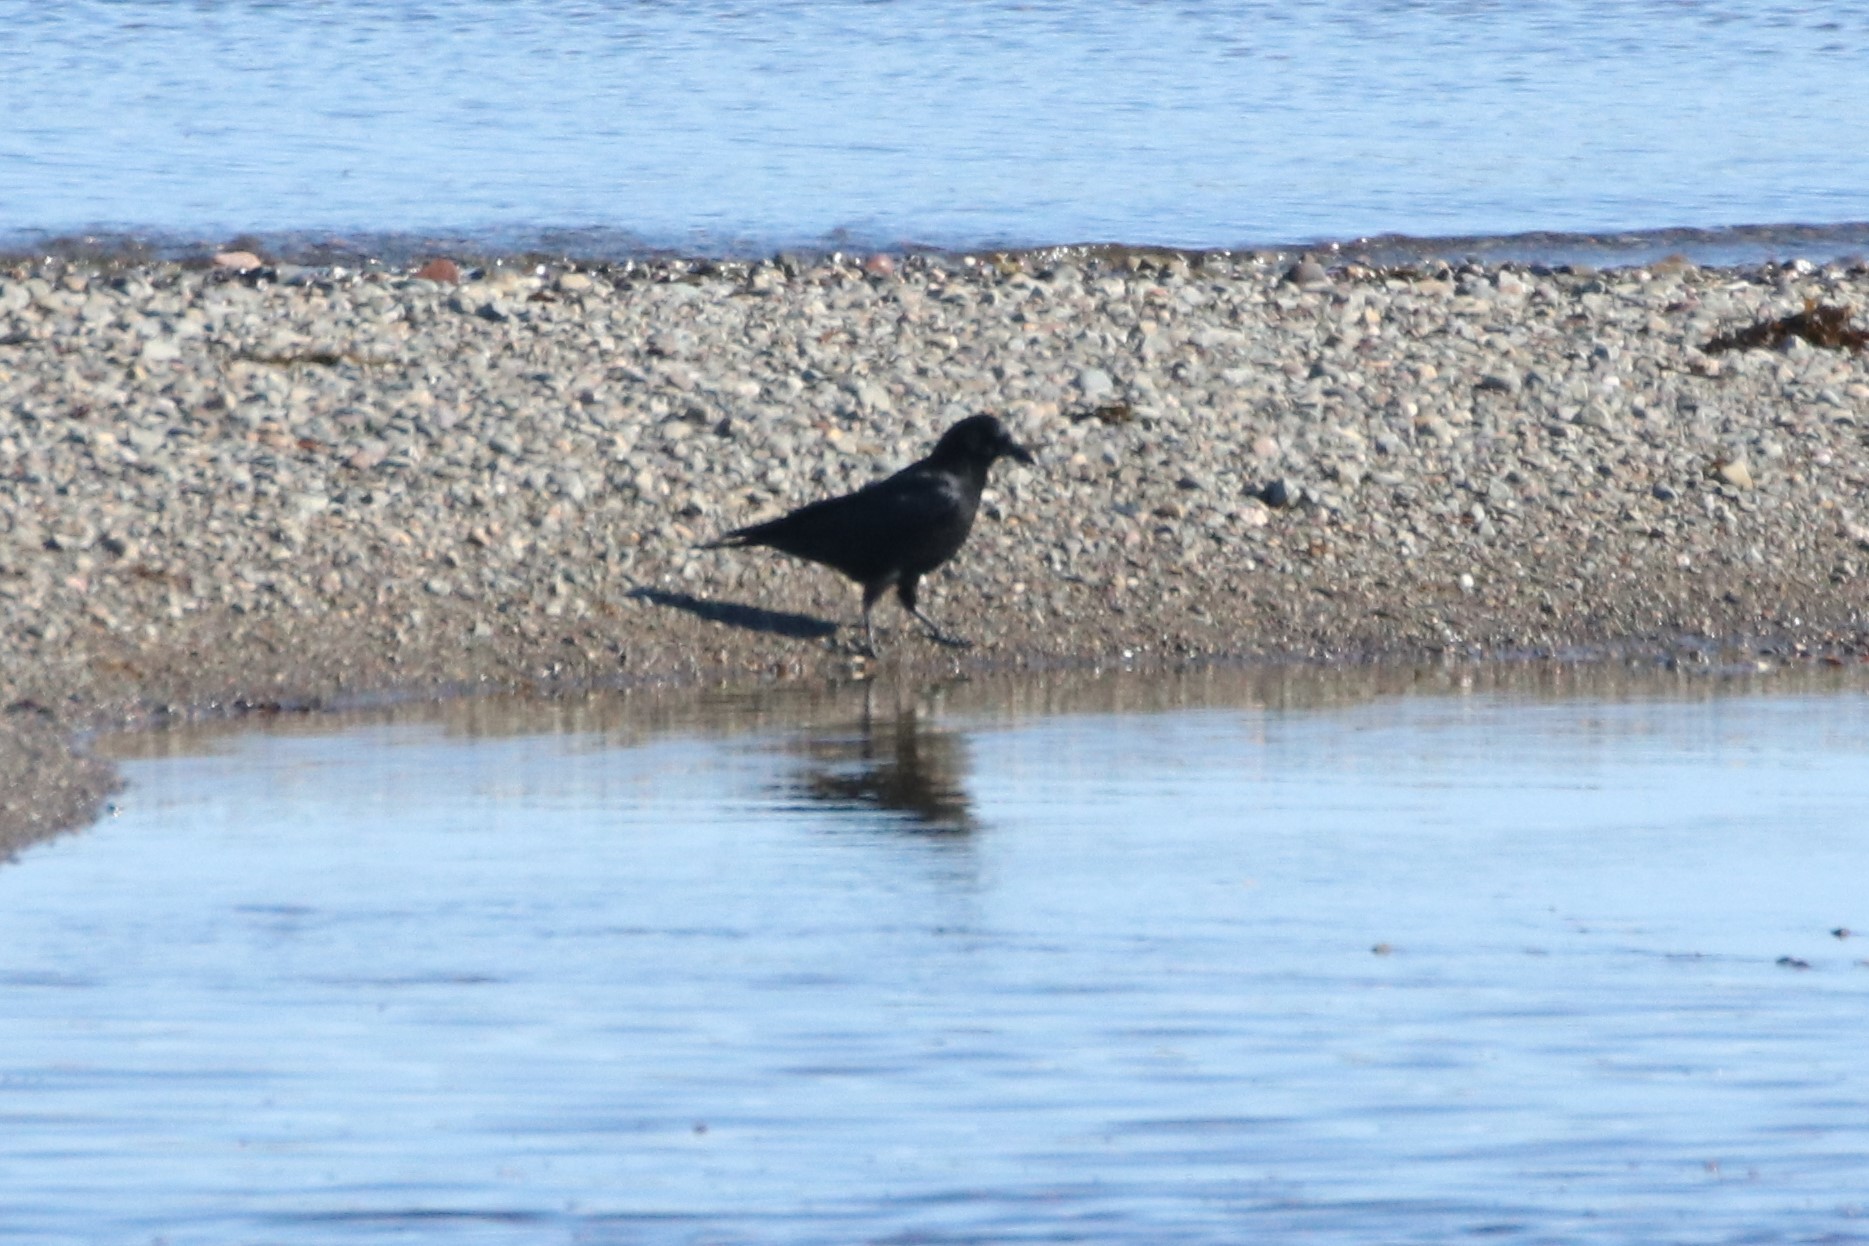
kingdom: Animalia
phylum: Chordata
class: Aves
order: Passeriformes
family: Corvidae
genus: Corvus
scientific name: Corvus brachyrhynchos
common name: American crow
